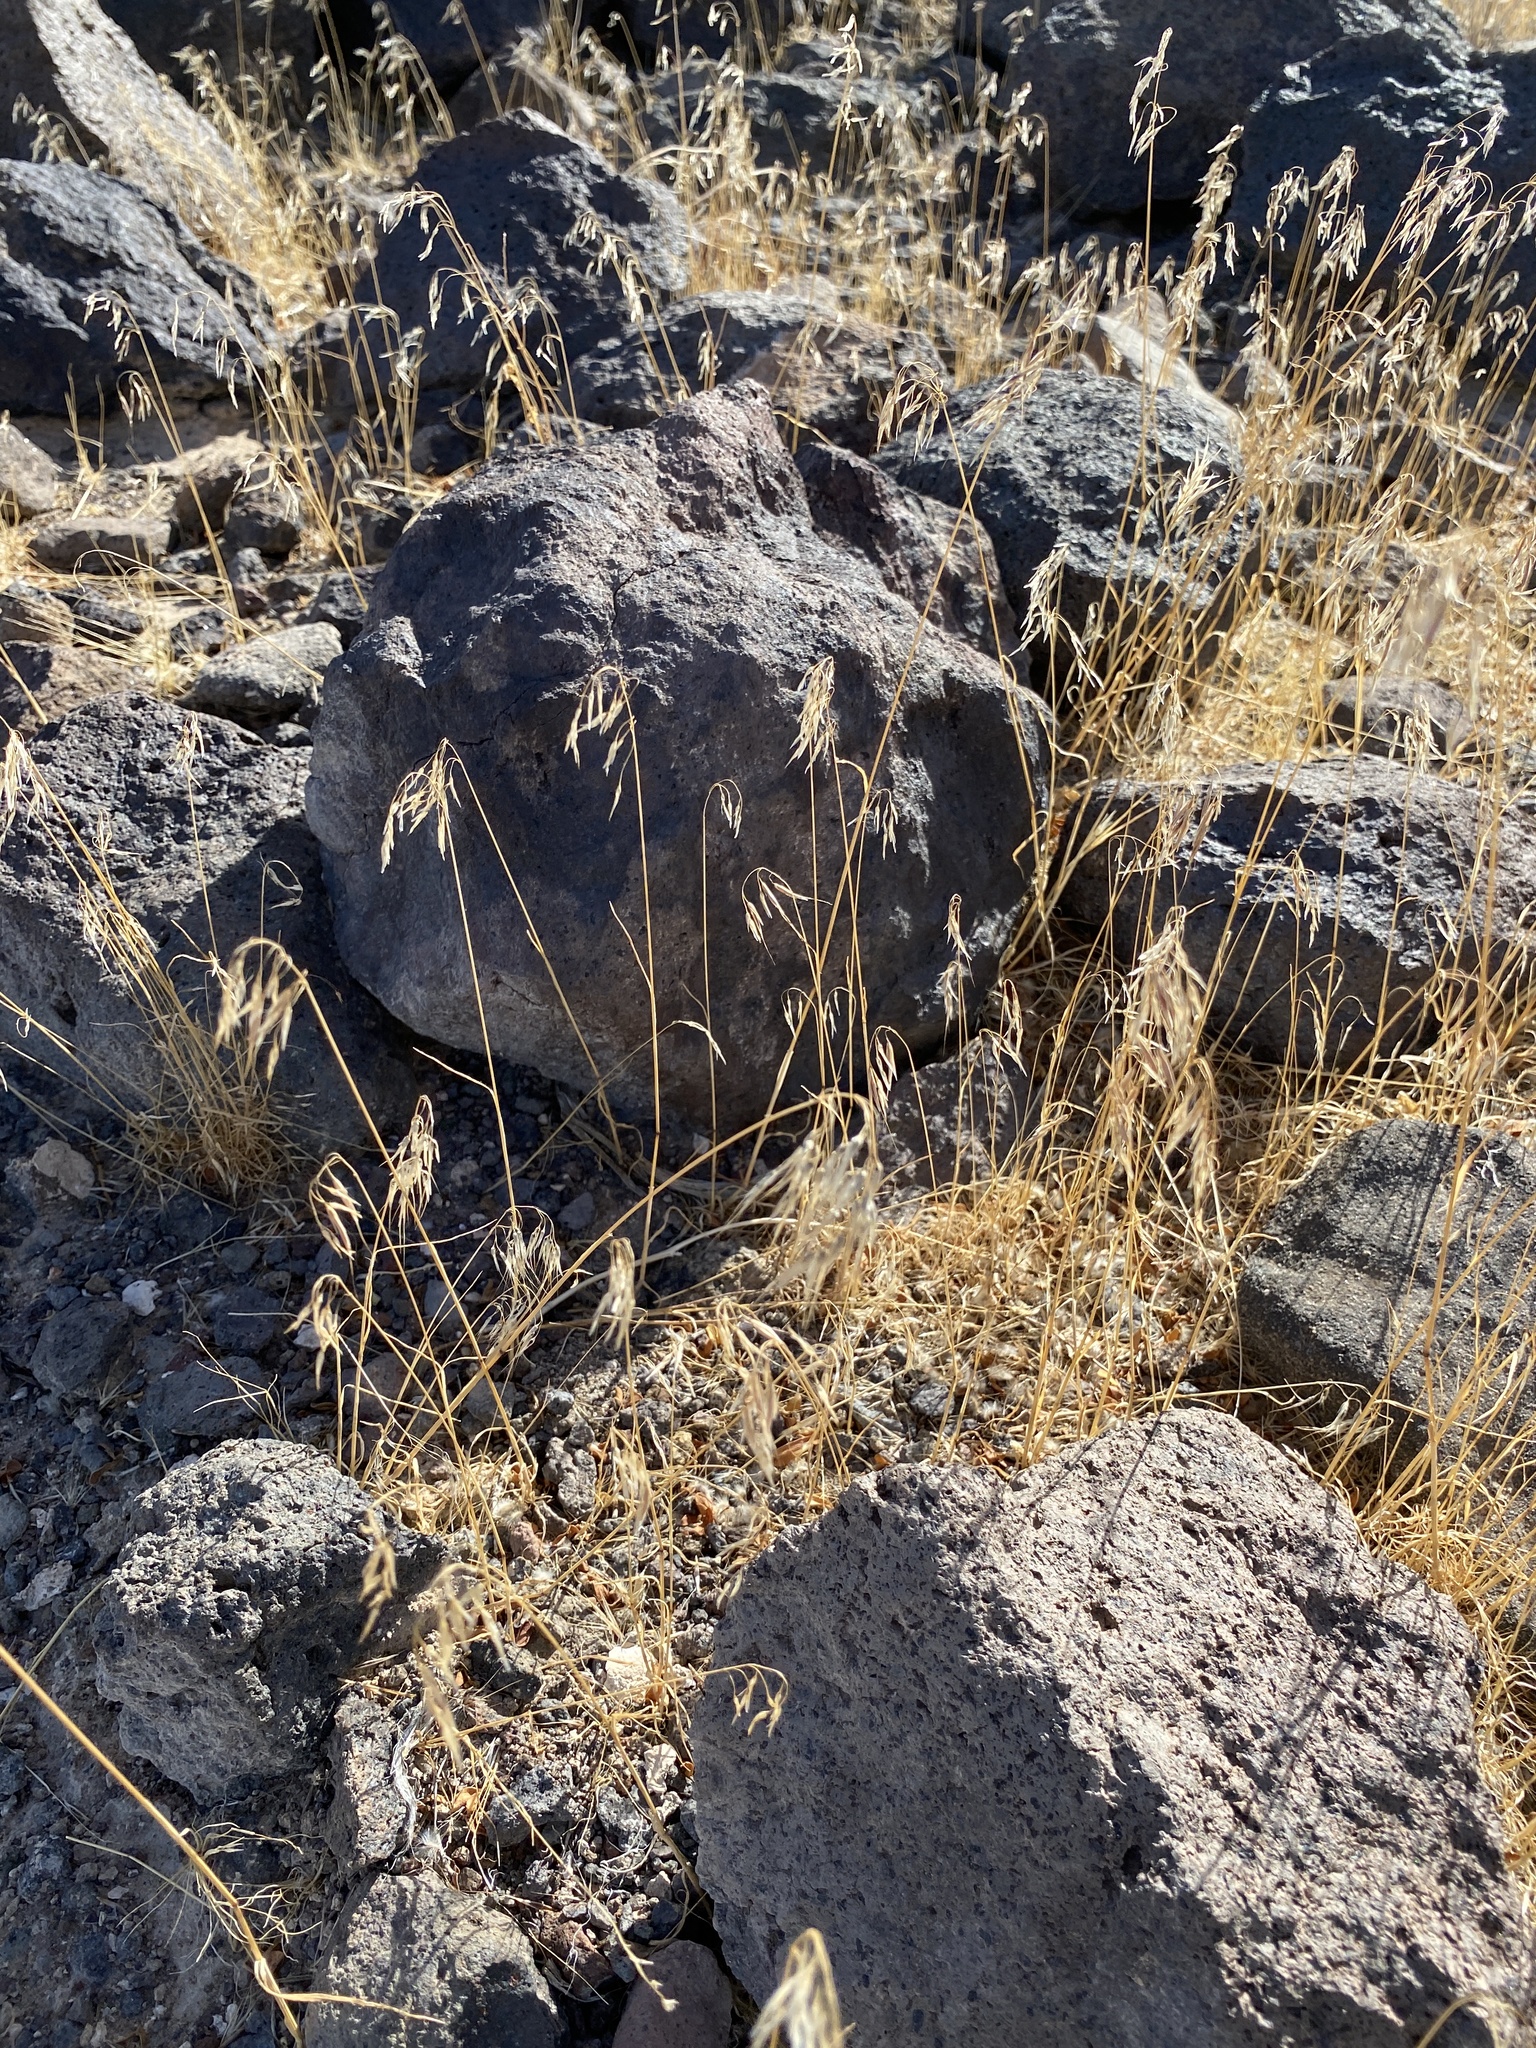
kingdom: Plantae
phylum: Tracheophyta
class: Liliopsida
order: Poales
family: Poaceae
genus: Bromus
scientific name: Bromus tectorum
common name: Cheatgrass
